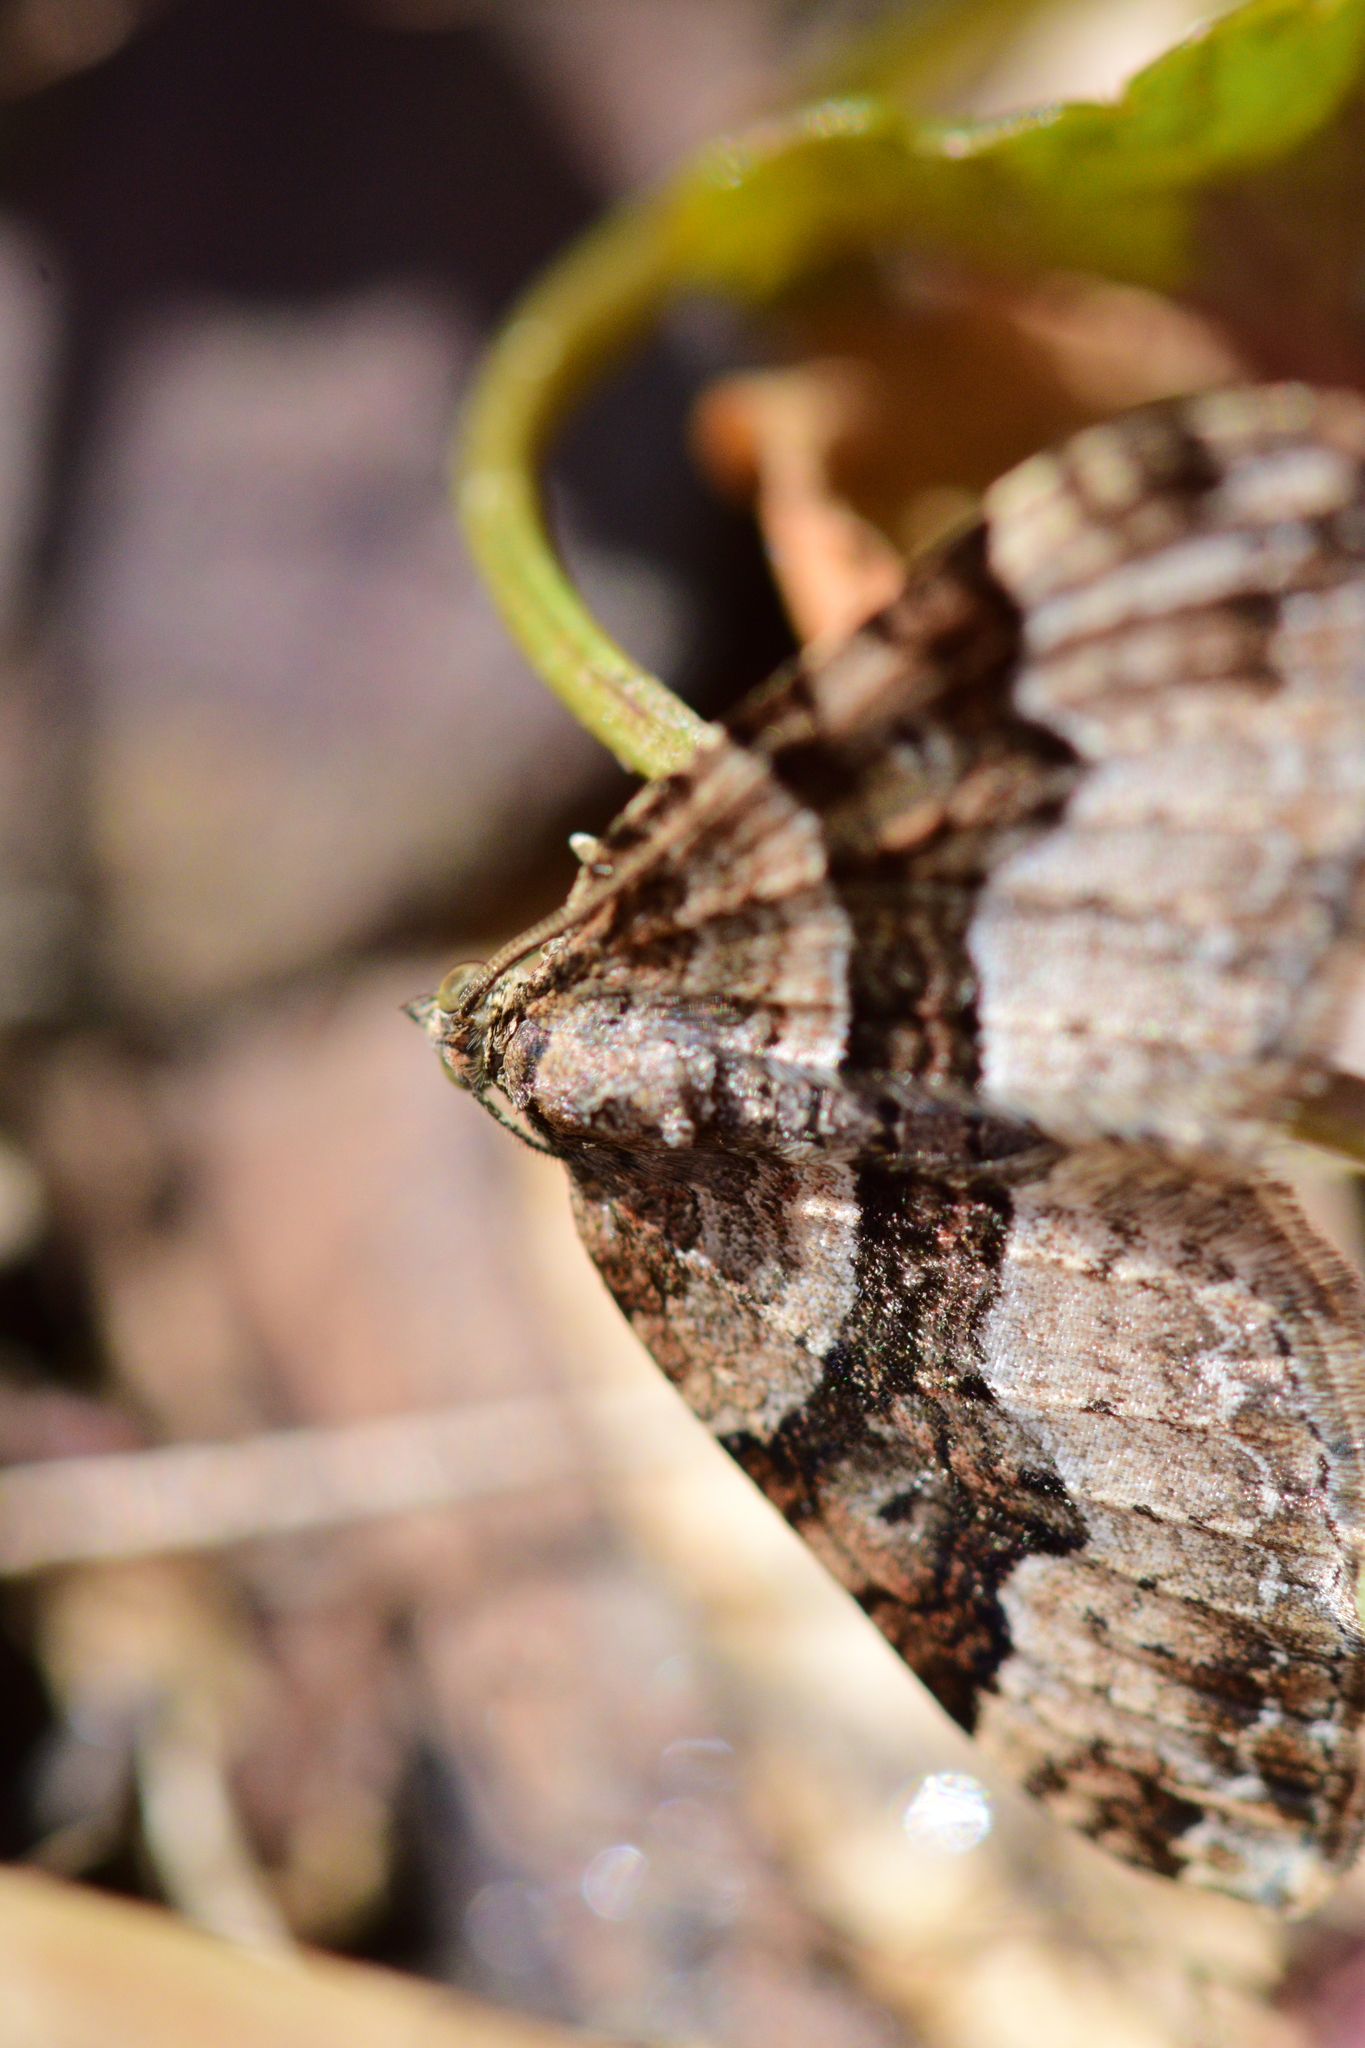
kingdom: Animalia
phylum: Arthropoda
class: Insecta
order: Lepidoptera
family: Geometridae
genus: Xanthorhoe
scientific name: Xanthorhoe lacustrata
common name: Toothed brown carpet
